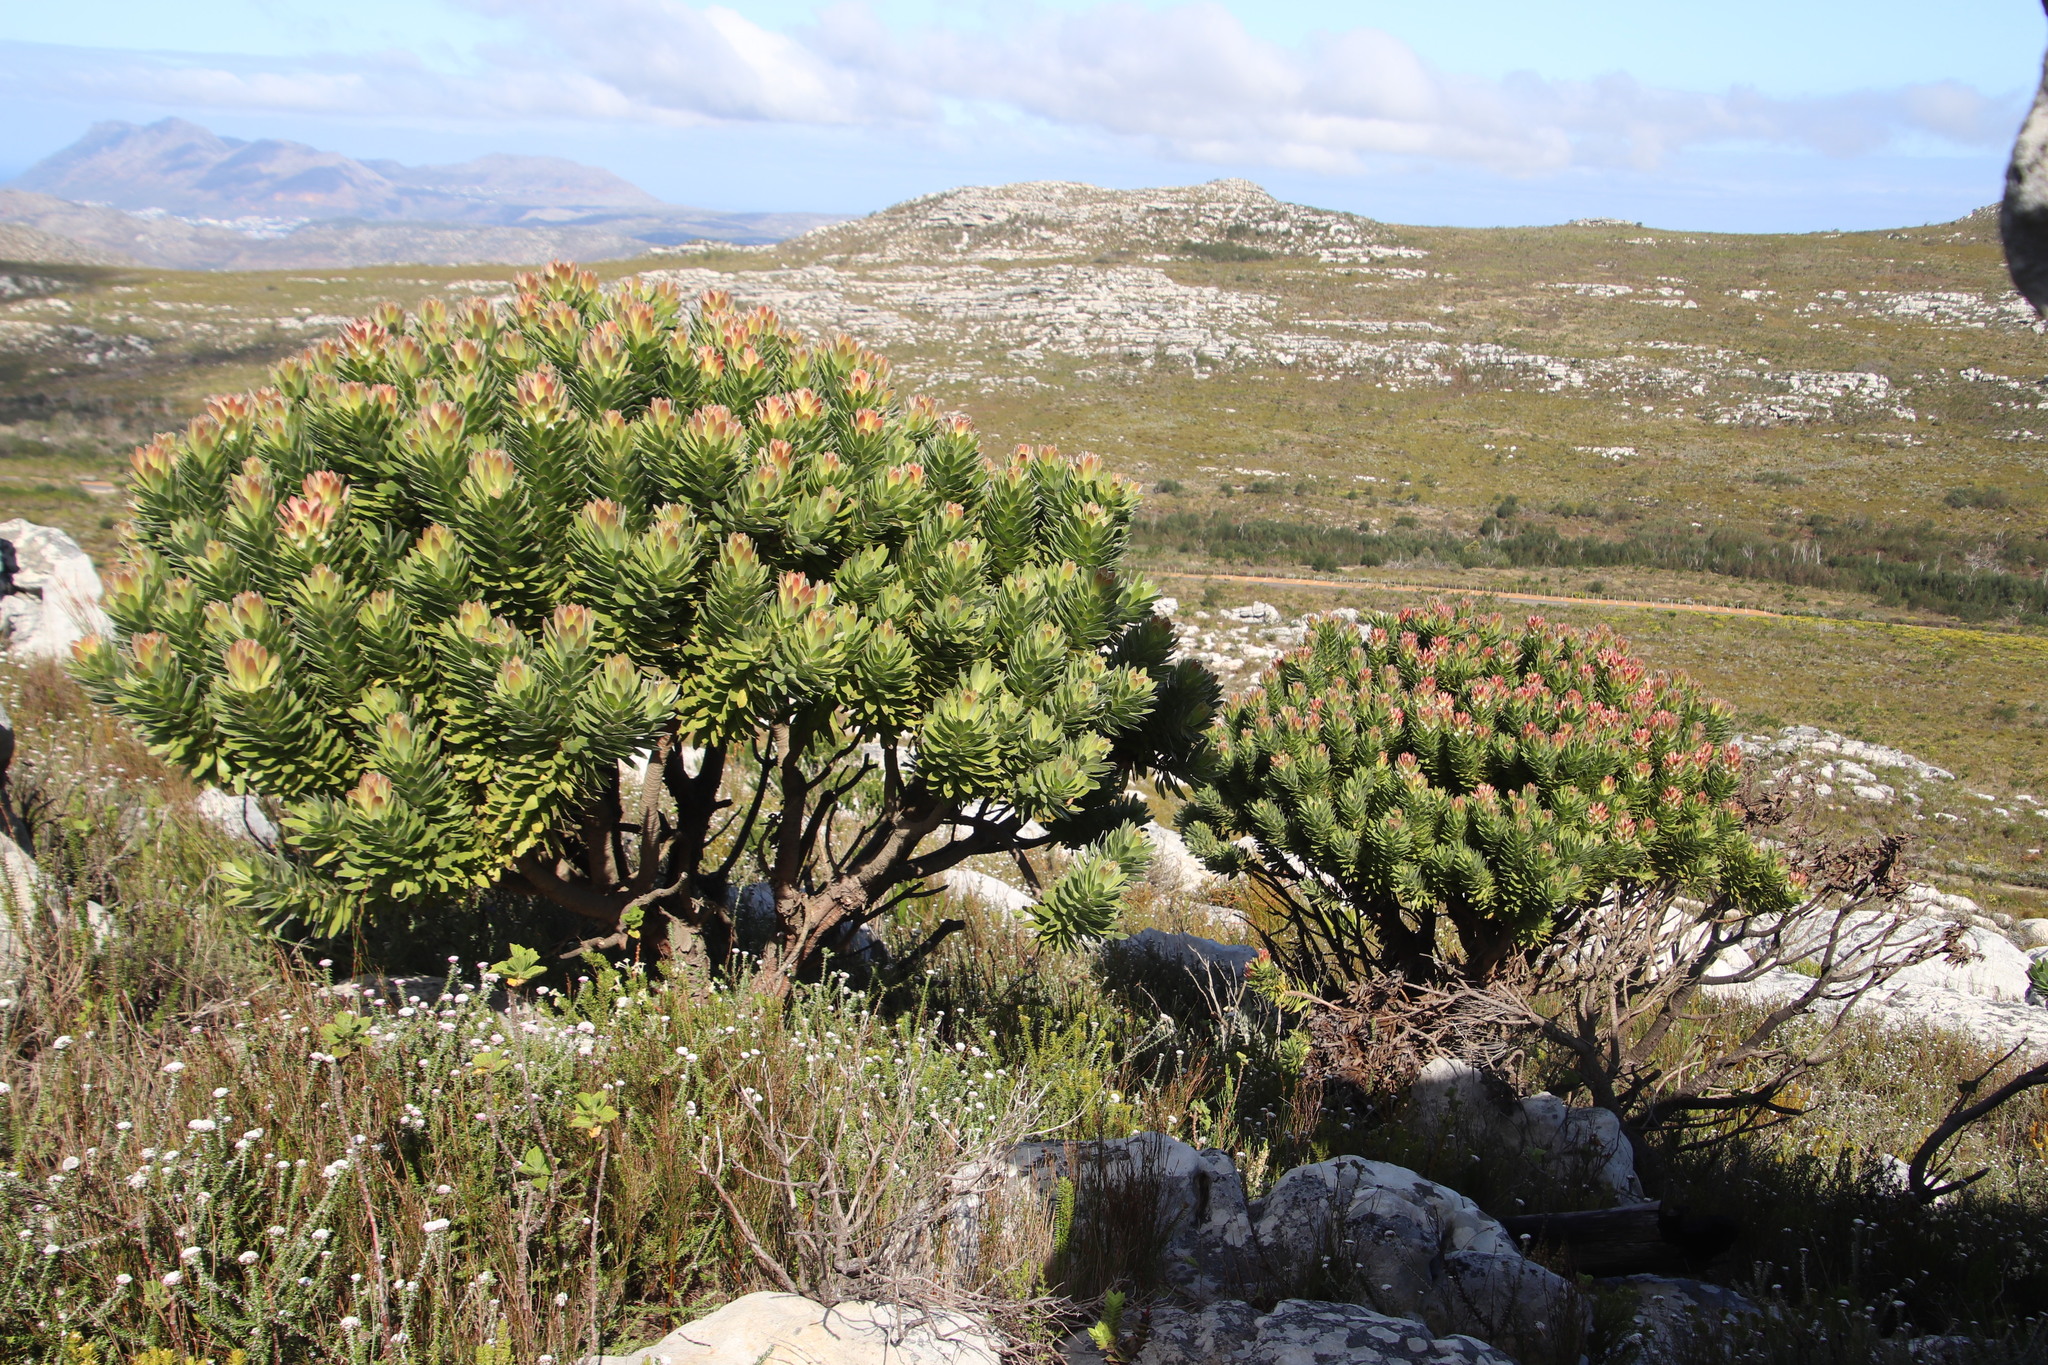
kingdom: Plantae
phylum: Tracheophyta
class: Magnoliopsida
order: Proteales
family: Proteaceae
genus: Mimetes
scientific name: Mimetes fimbriifolius
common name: Fringed bottlebrush
